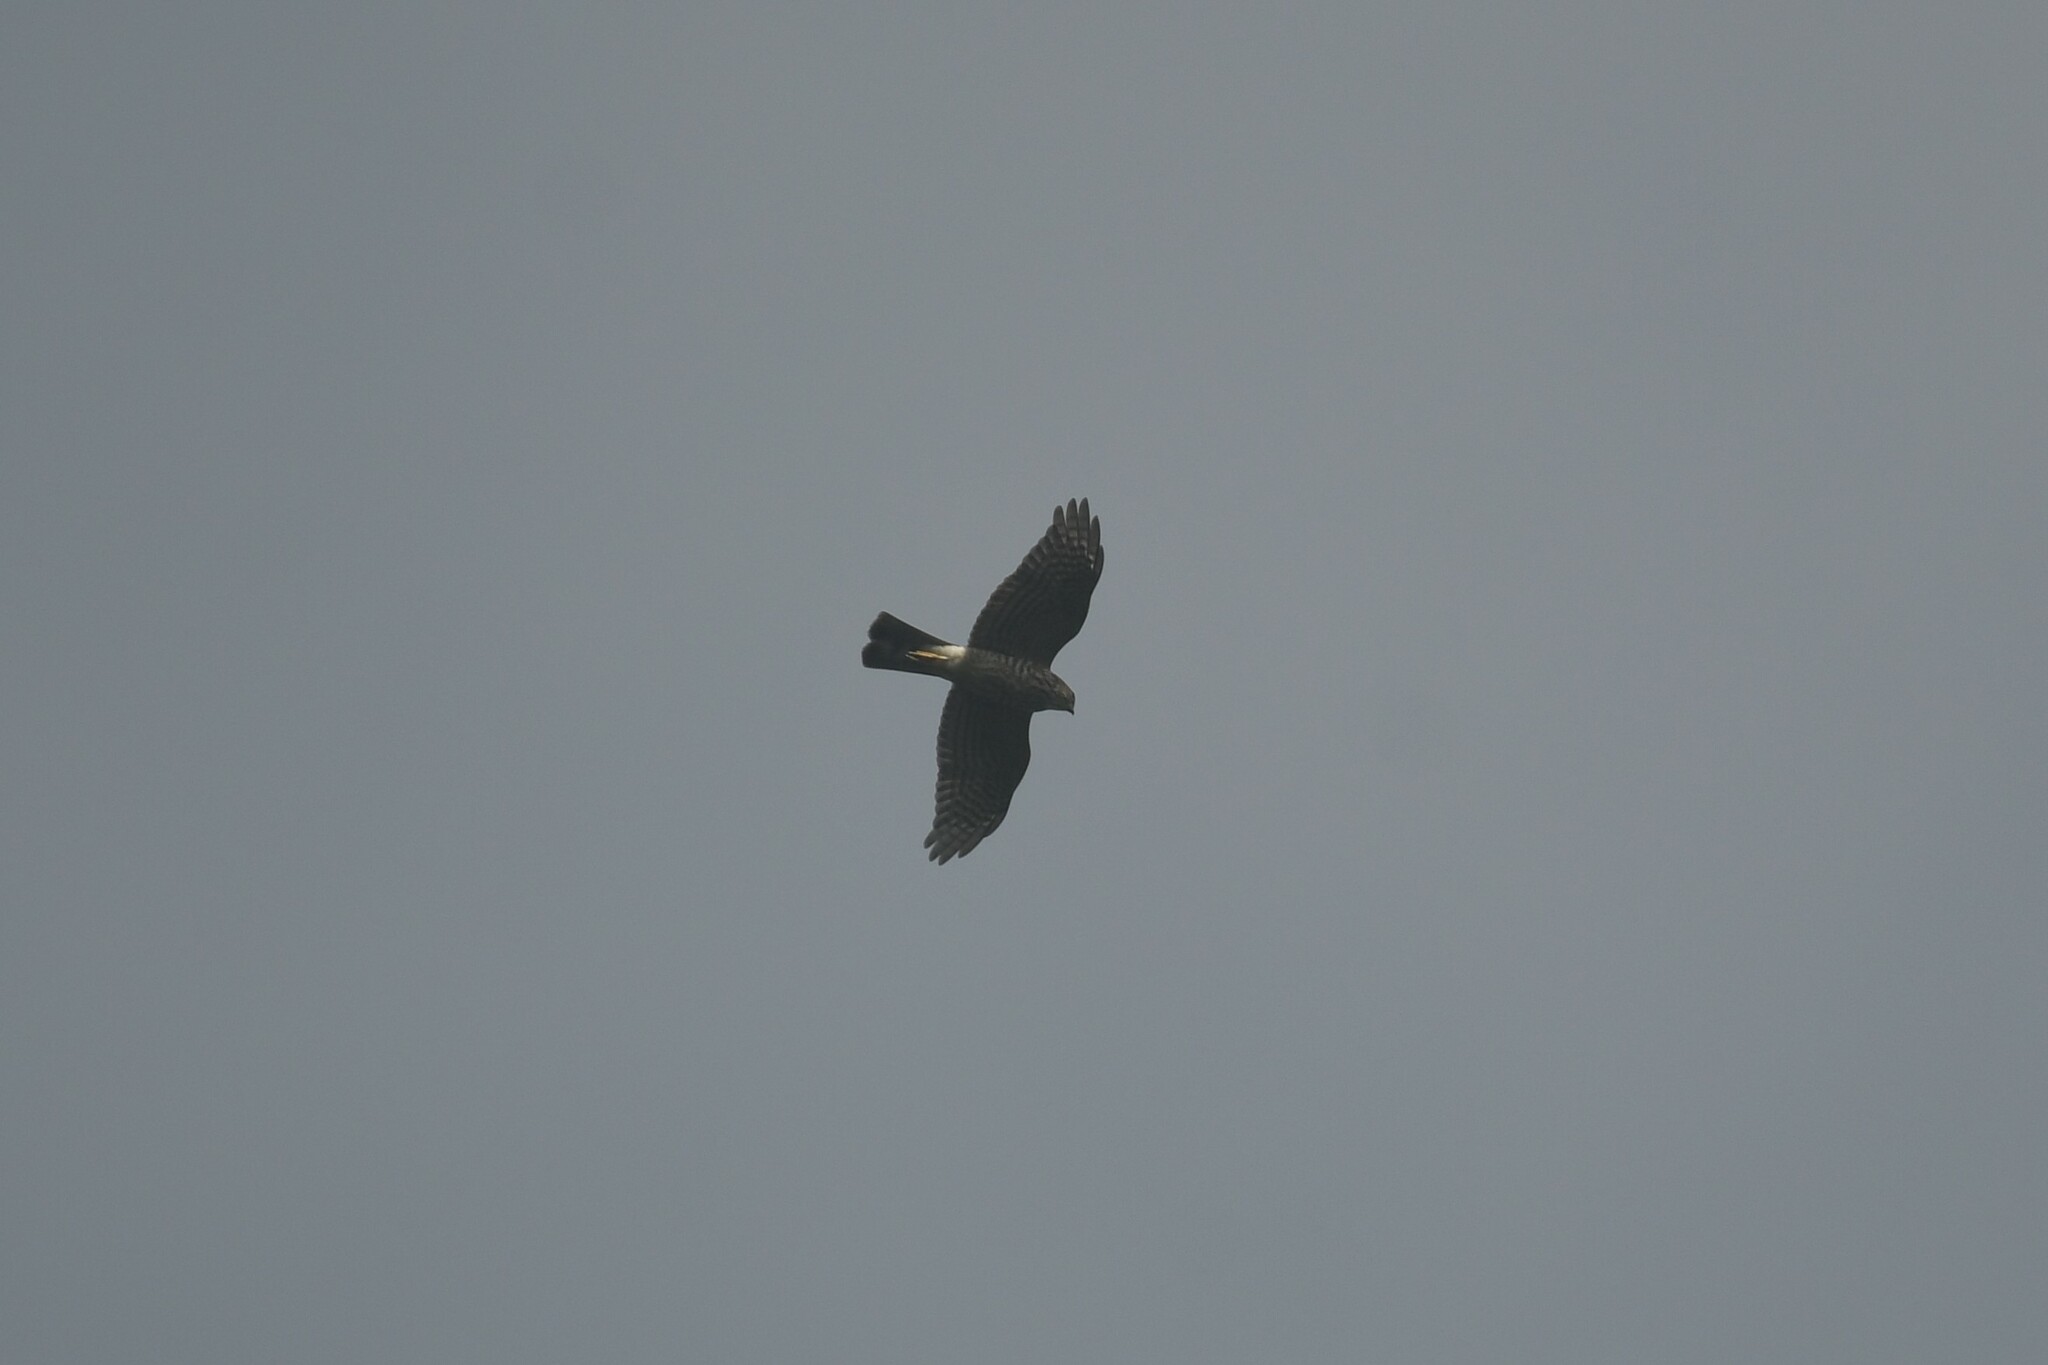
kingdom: Animalia
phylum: Chordata
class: Aves
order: Accipitriformes
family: Accipitridae
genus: Accipiter
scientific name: Accipiter gularis
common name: Japanese sparrowhawk
